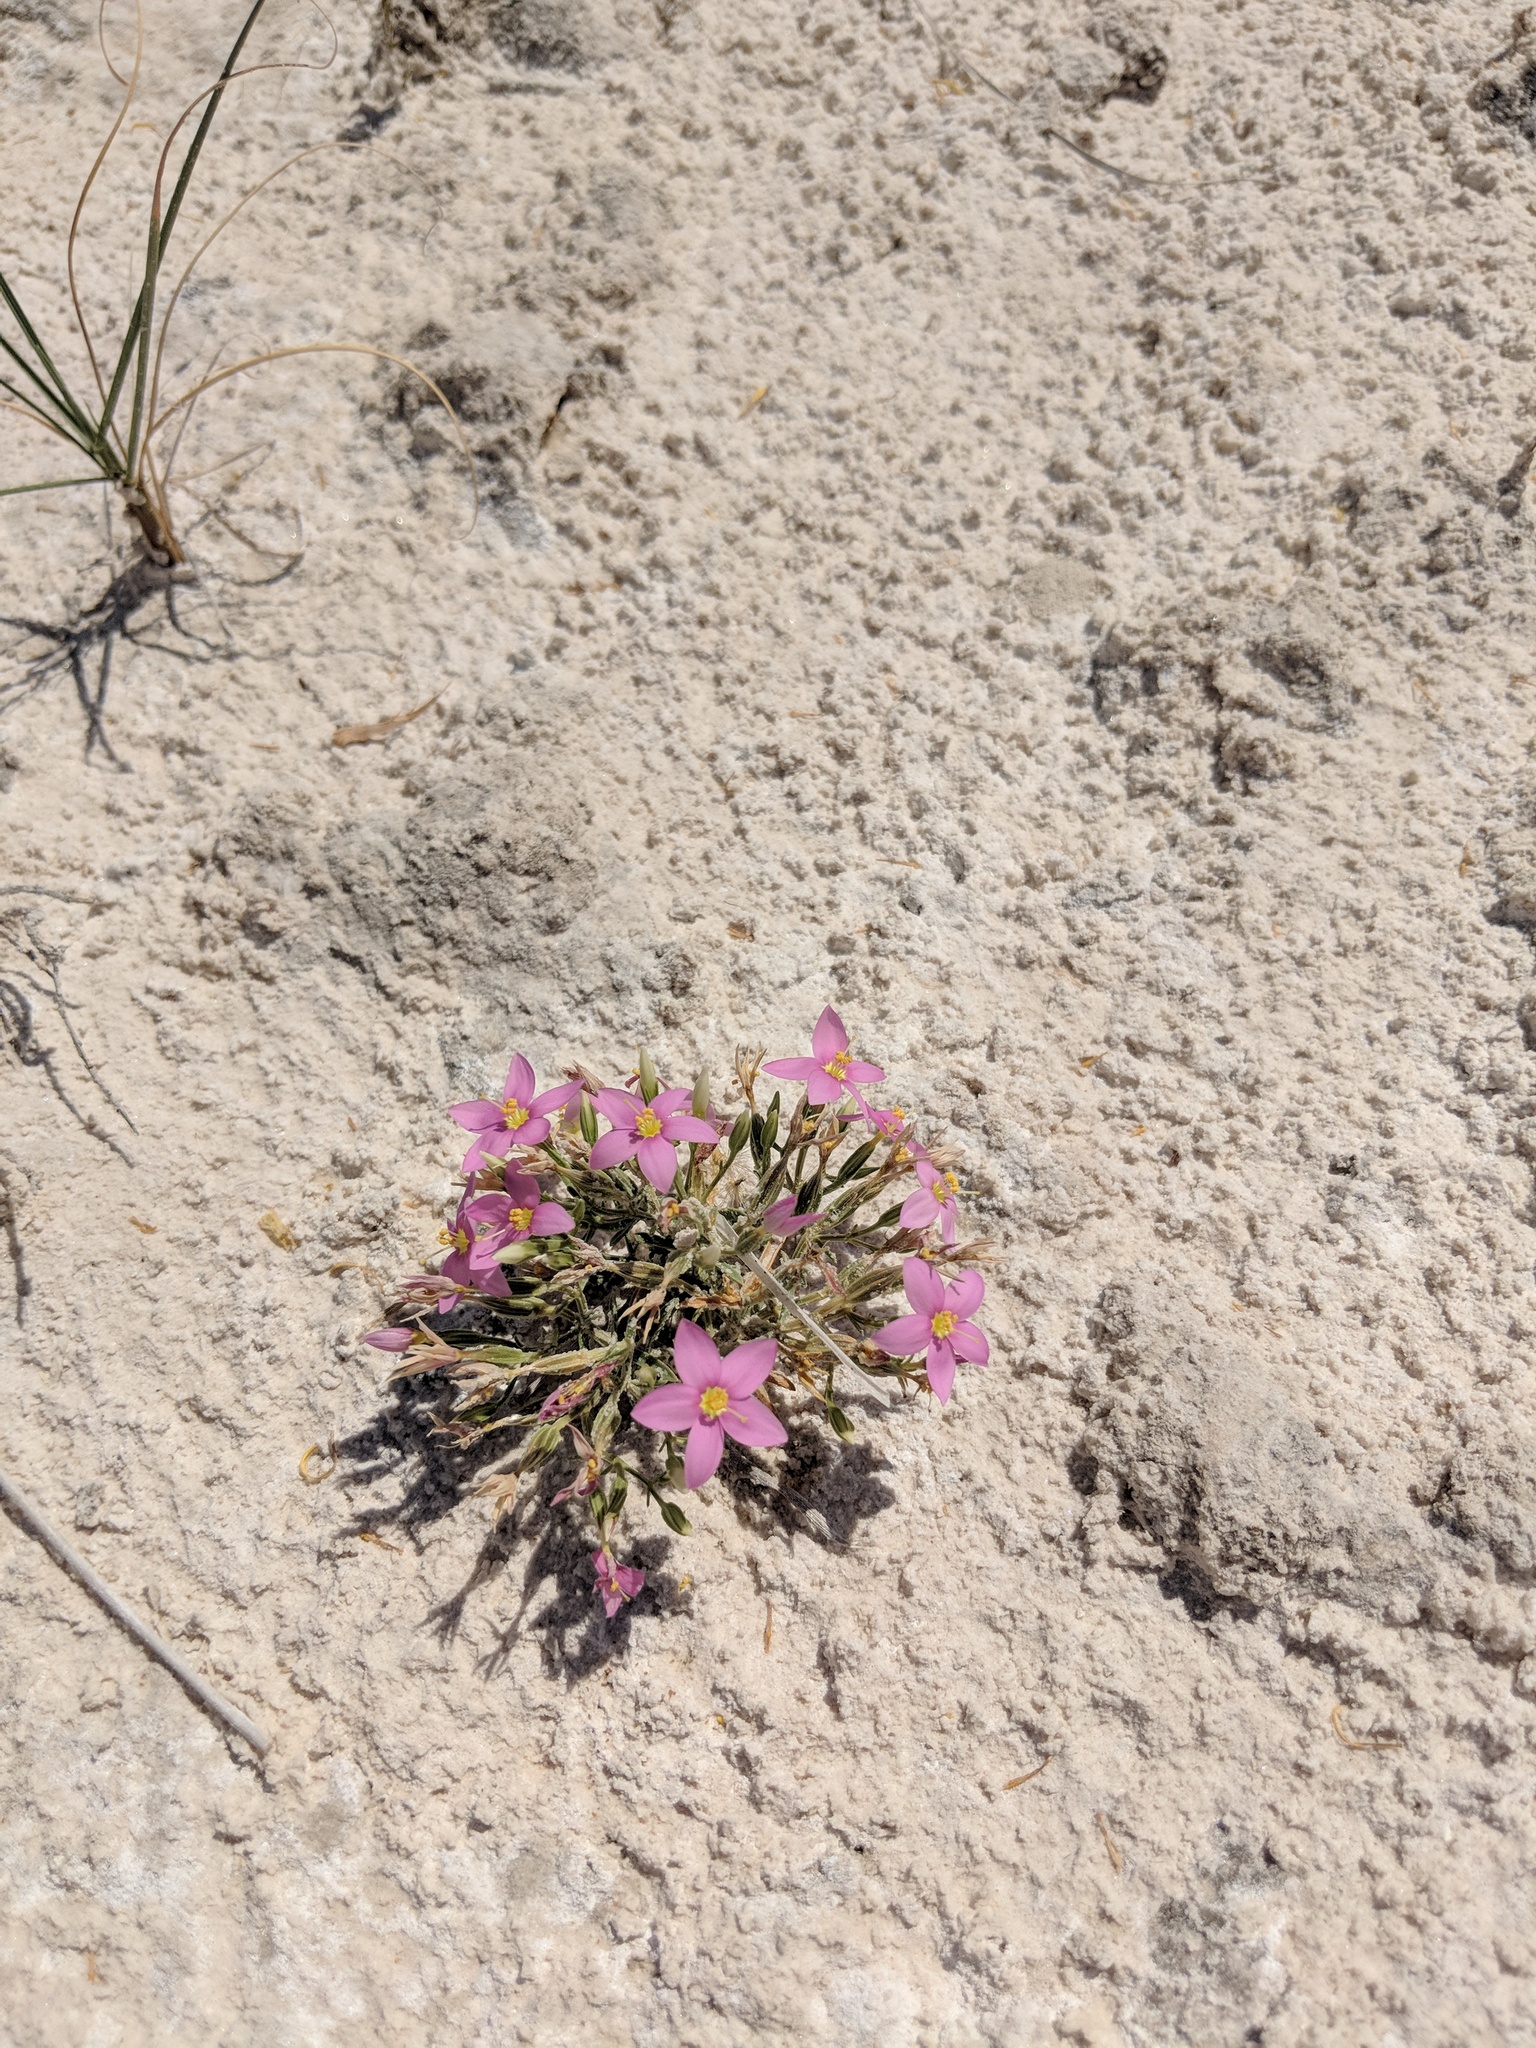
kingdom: Plantae
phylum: Tracheophyta
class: Magnoliopsida
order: Gentianales
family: Gentianaceae
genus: Zeltnera
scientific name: Zeltnera maryanniana
